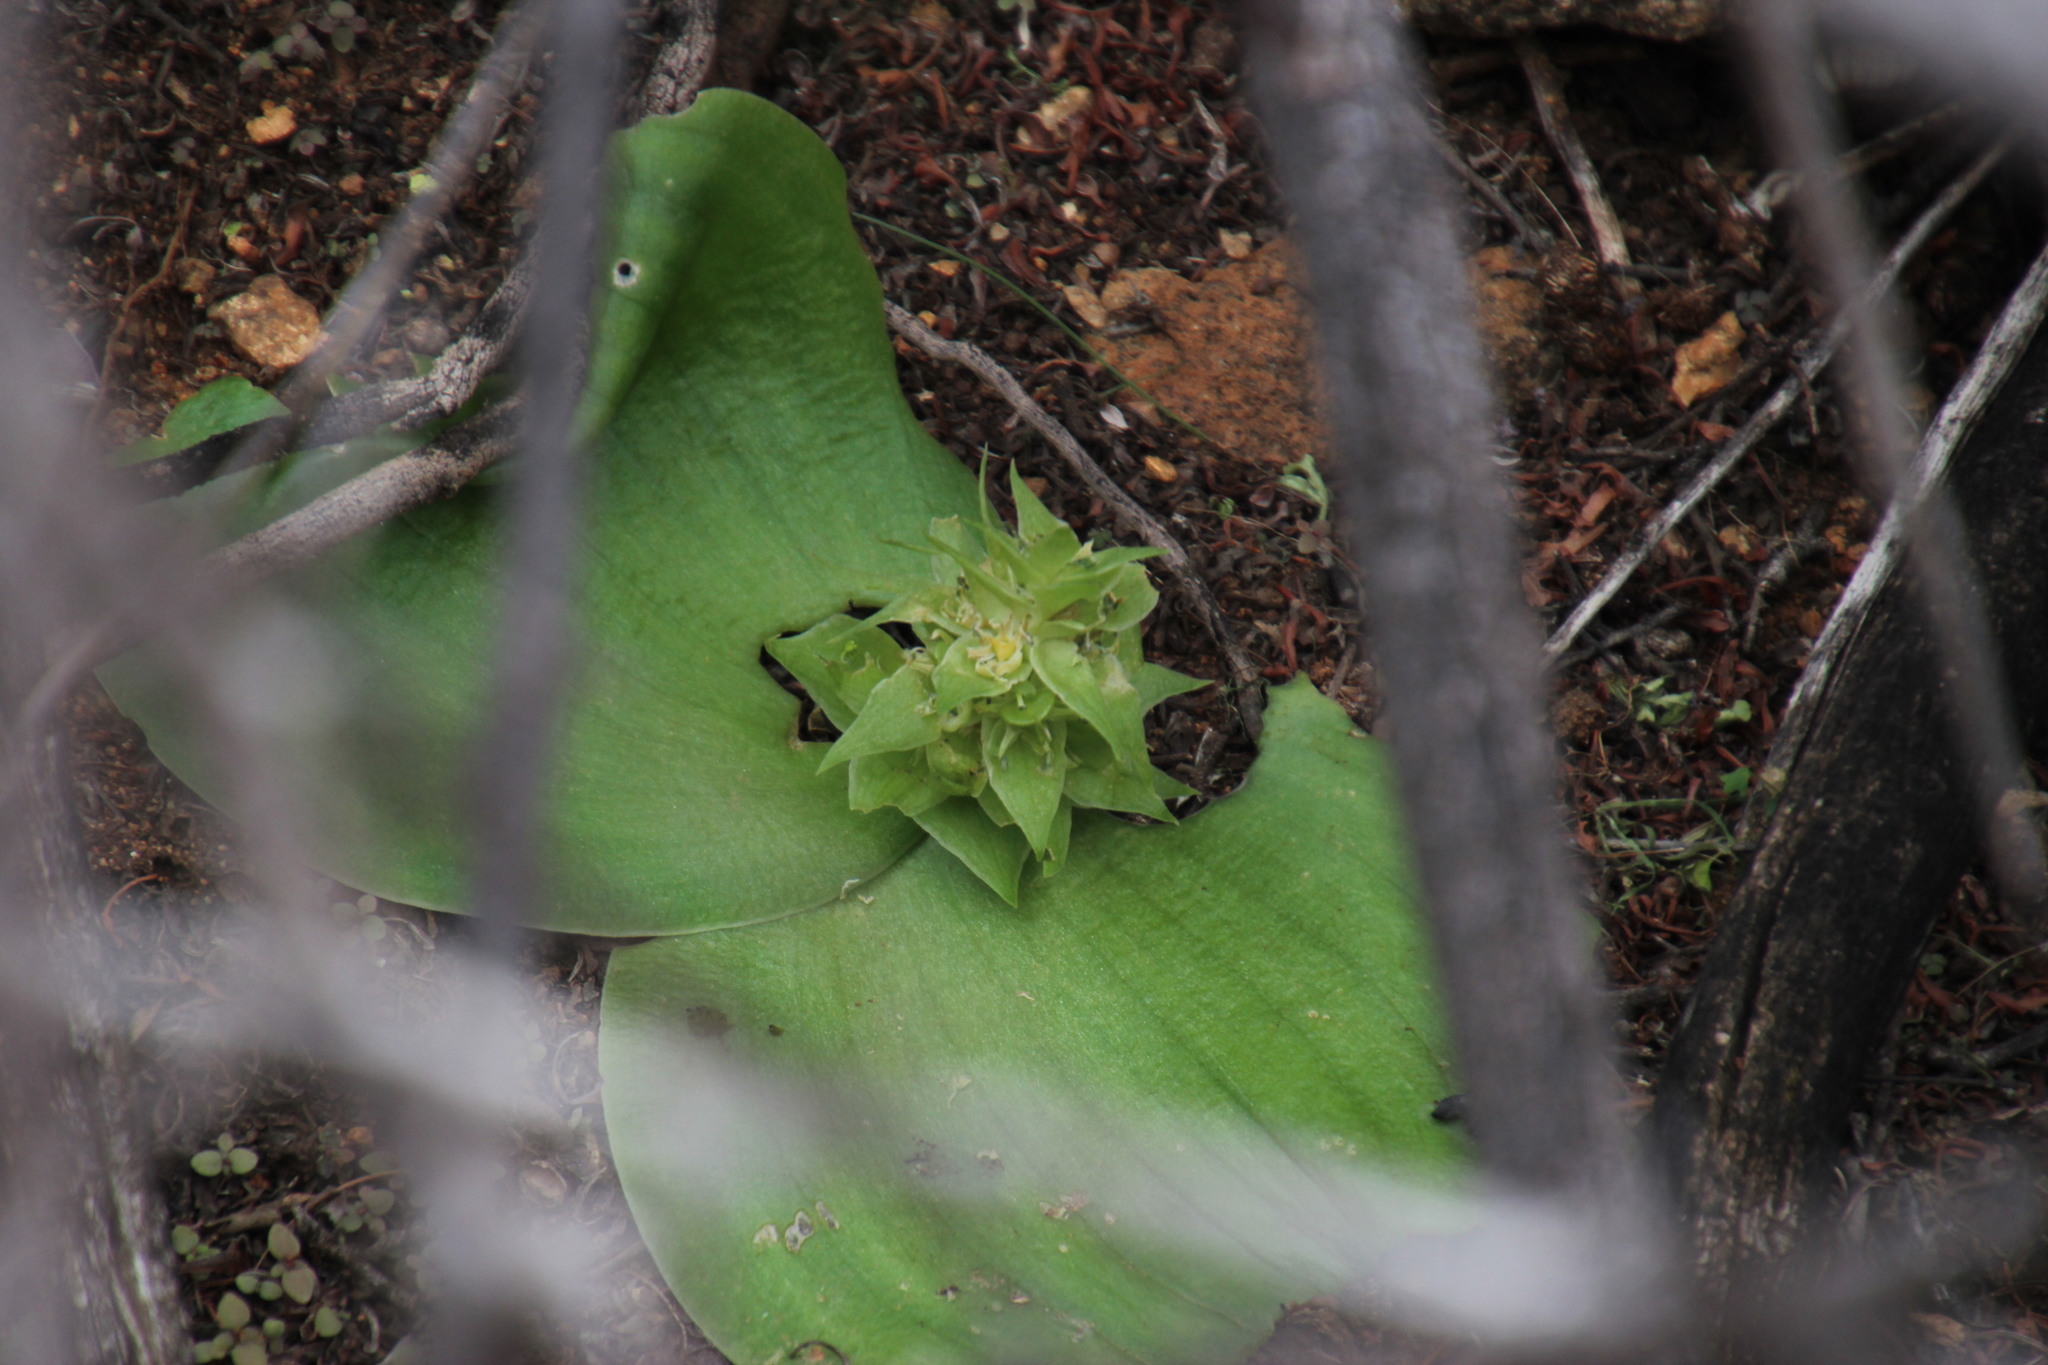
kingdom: Plantae
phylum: Tracheophyta
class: Liliopsida
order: Asparagales
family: Asparagaceae
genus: Massonia
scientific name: Massonia bifolia
